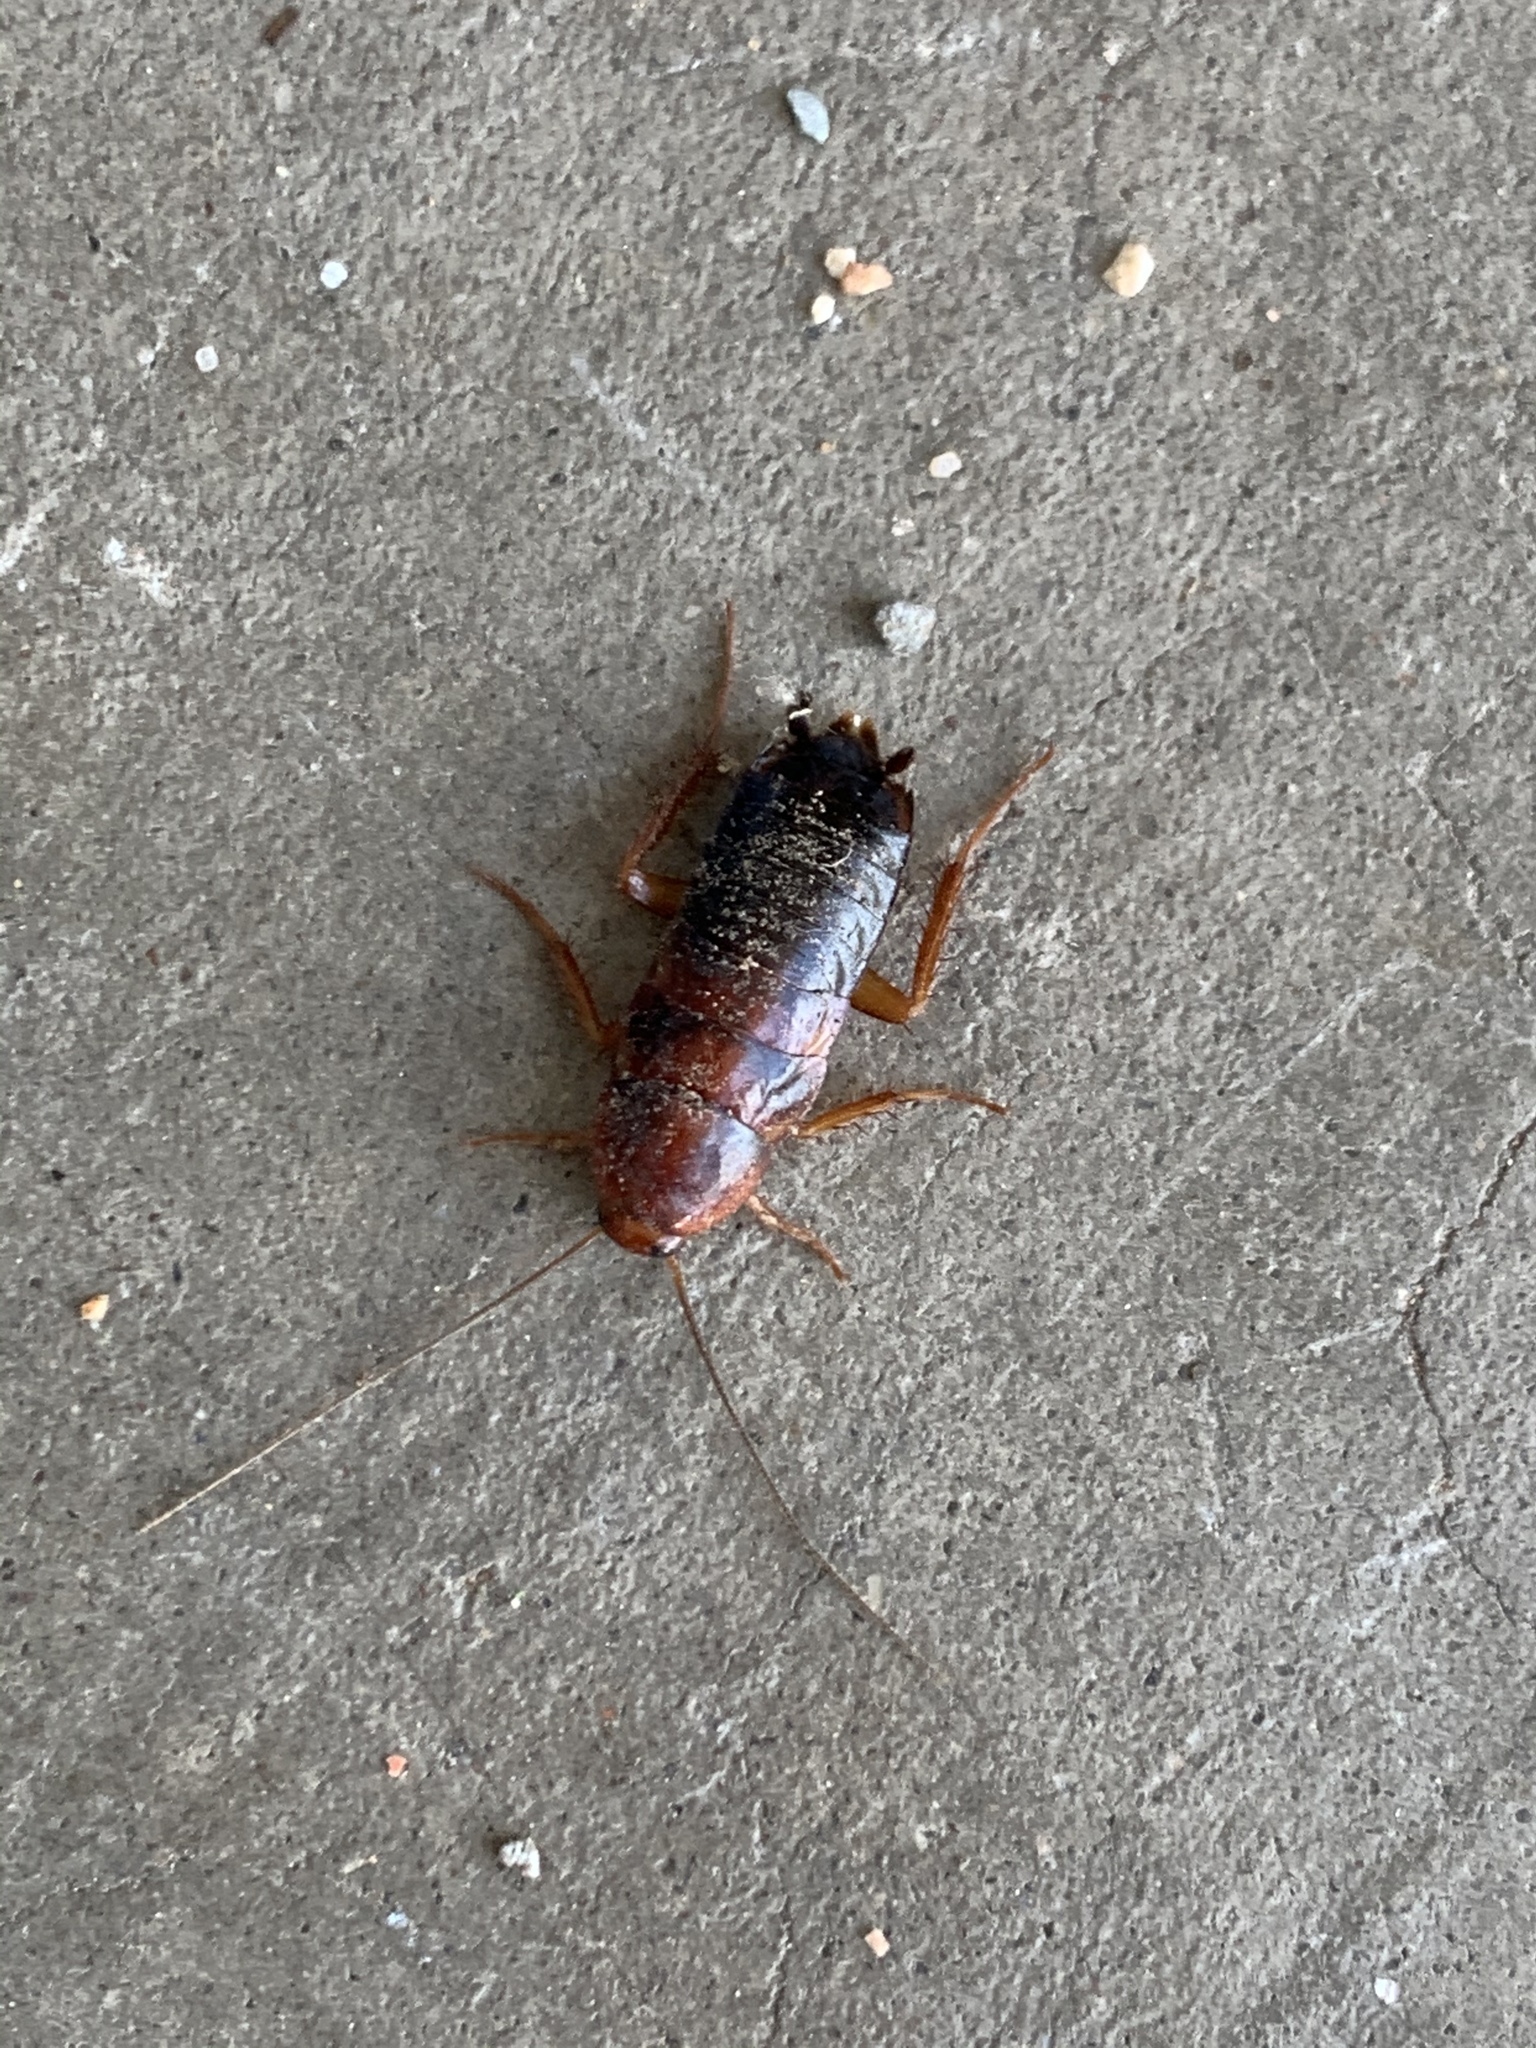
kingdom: Animalia
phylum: Arthropoda
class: Insecta
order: Blattodea
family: Blattidae
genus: Periplaneta
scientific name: Periplaneta lateralis
